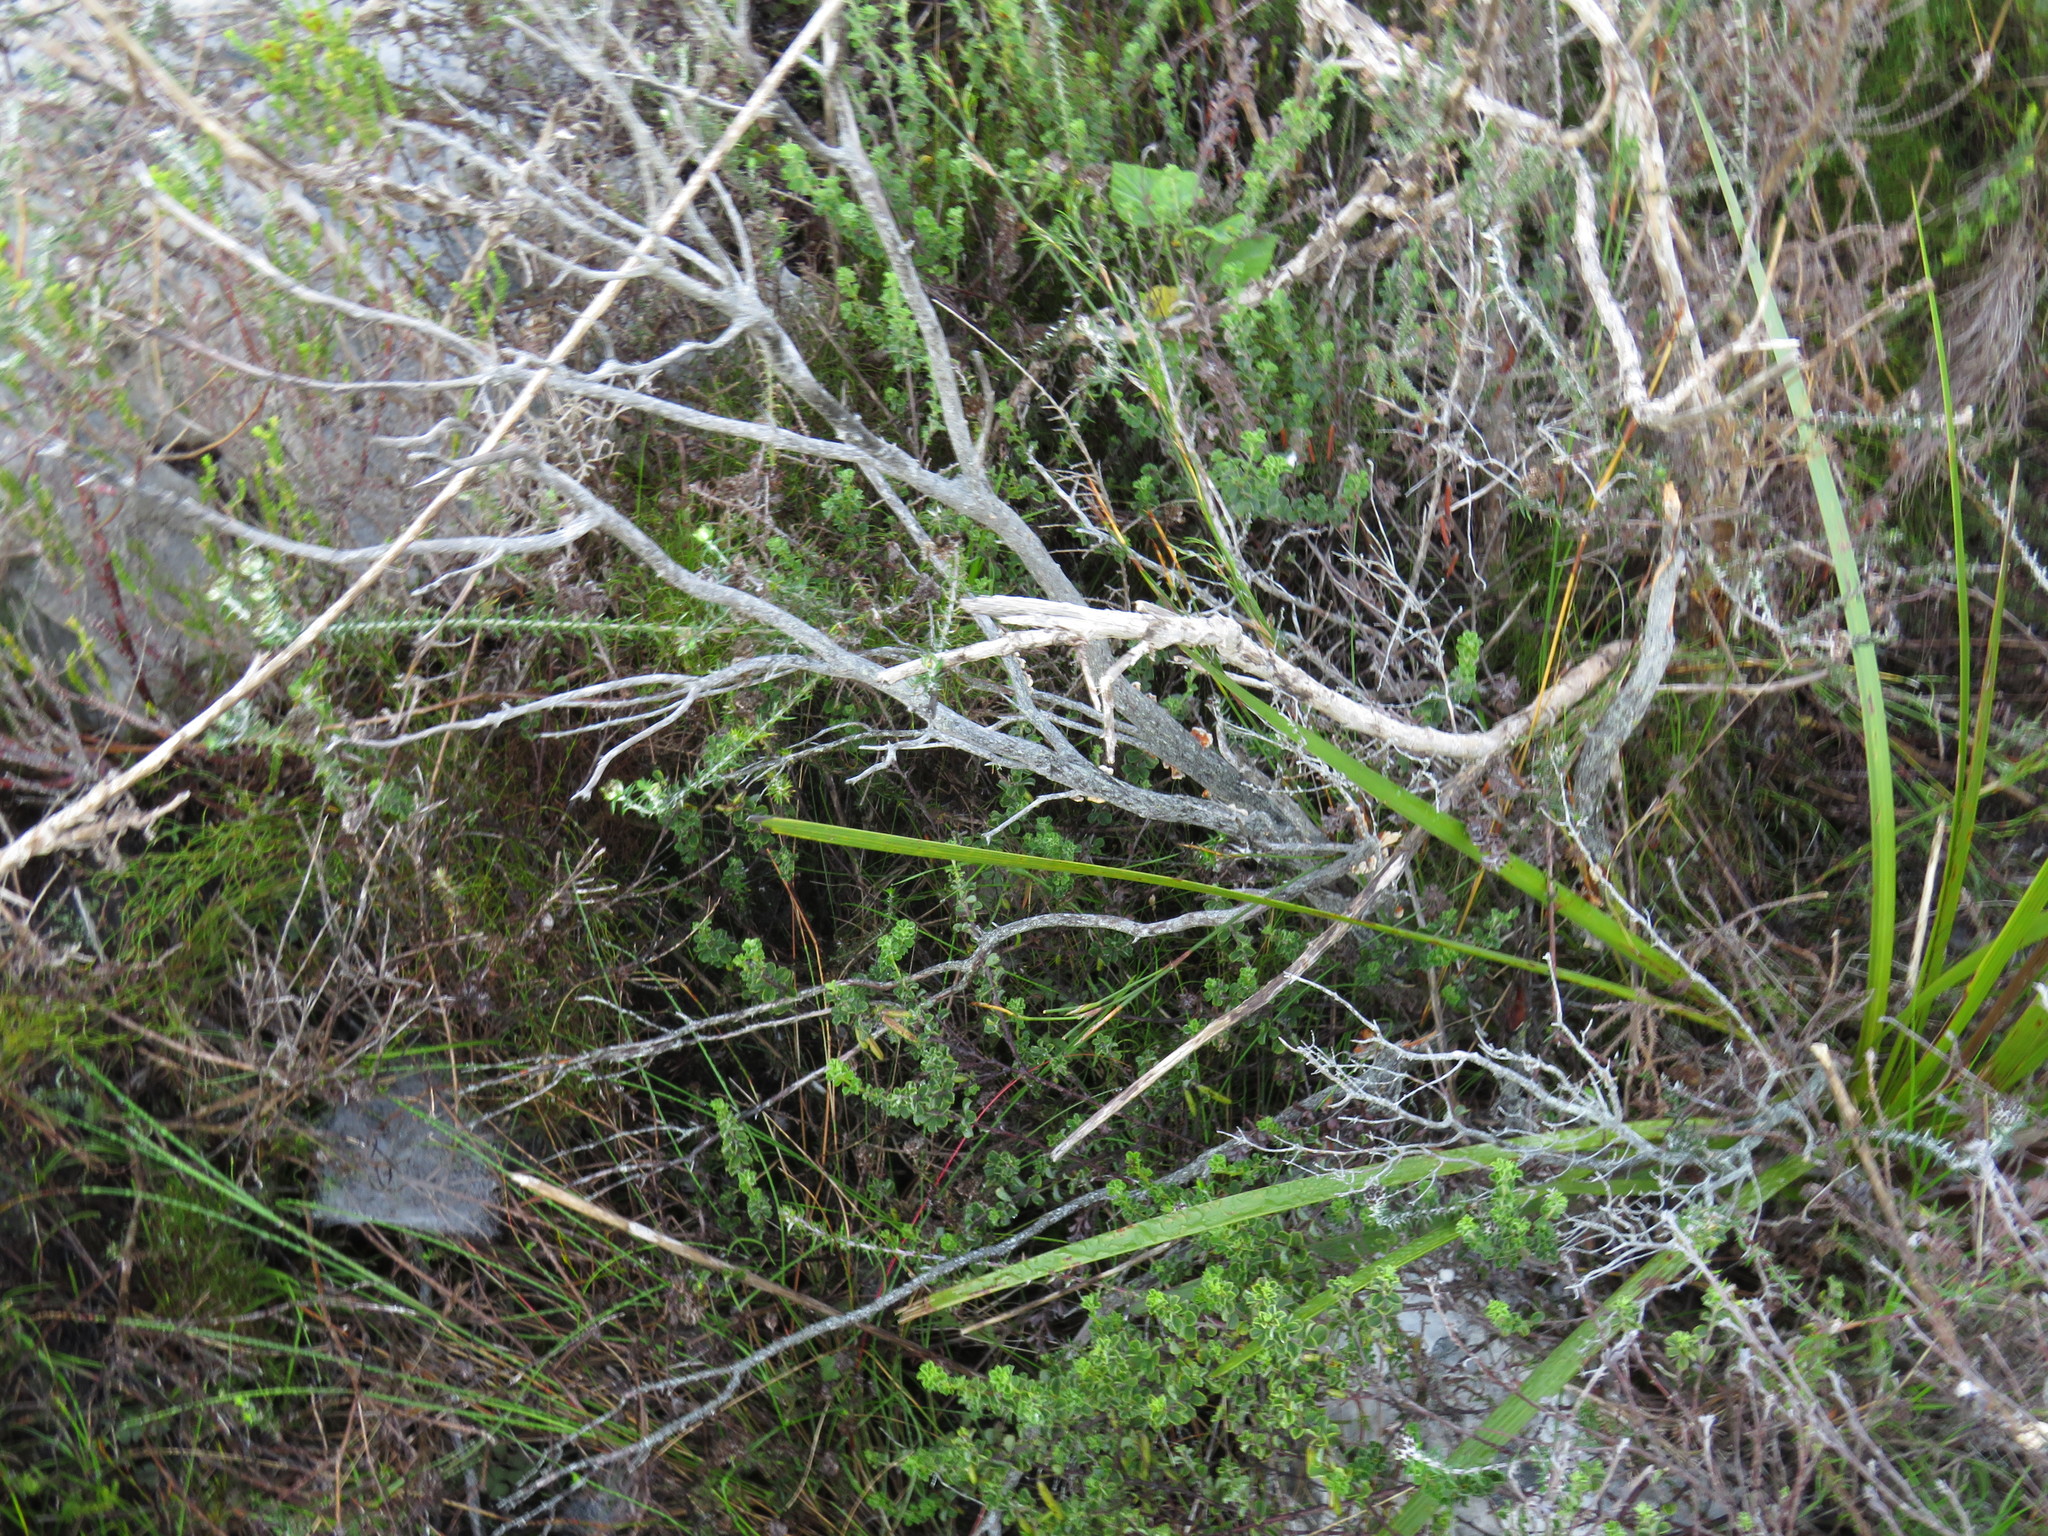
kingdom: Plantae
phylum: Tracheophyta
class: Magnoliopsida
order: Fabales
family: Fabaceae
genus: Indigofera
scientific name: Indigofera candolleana
